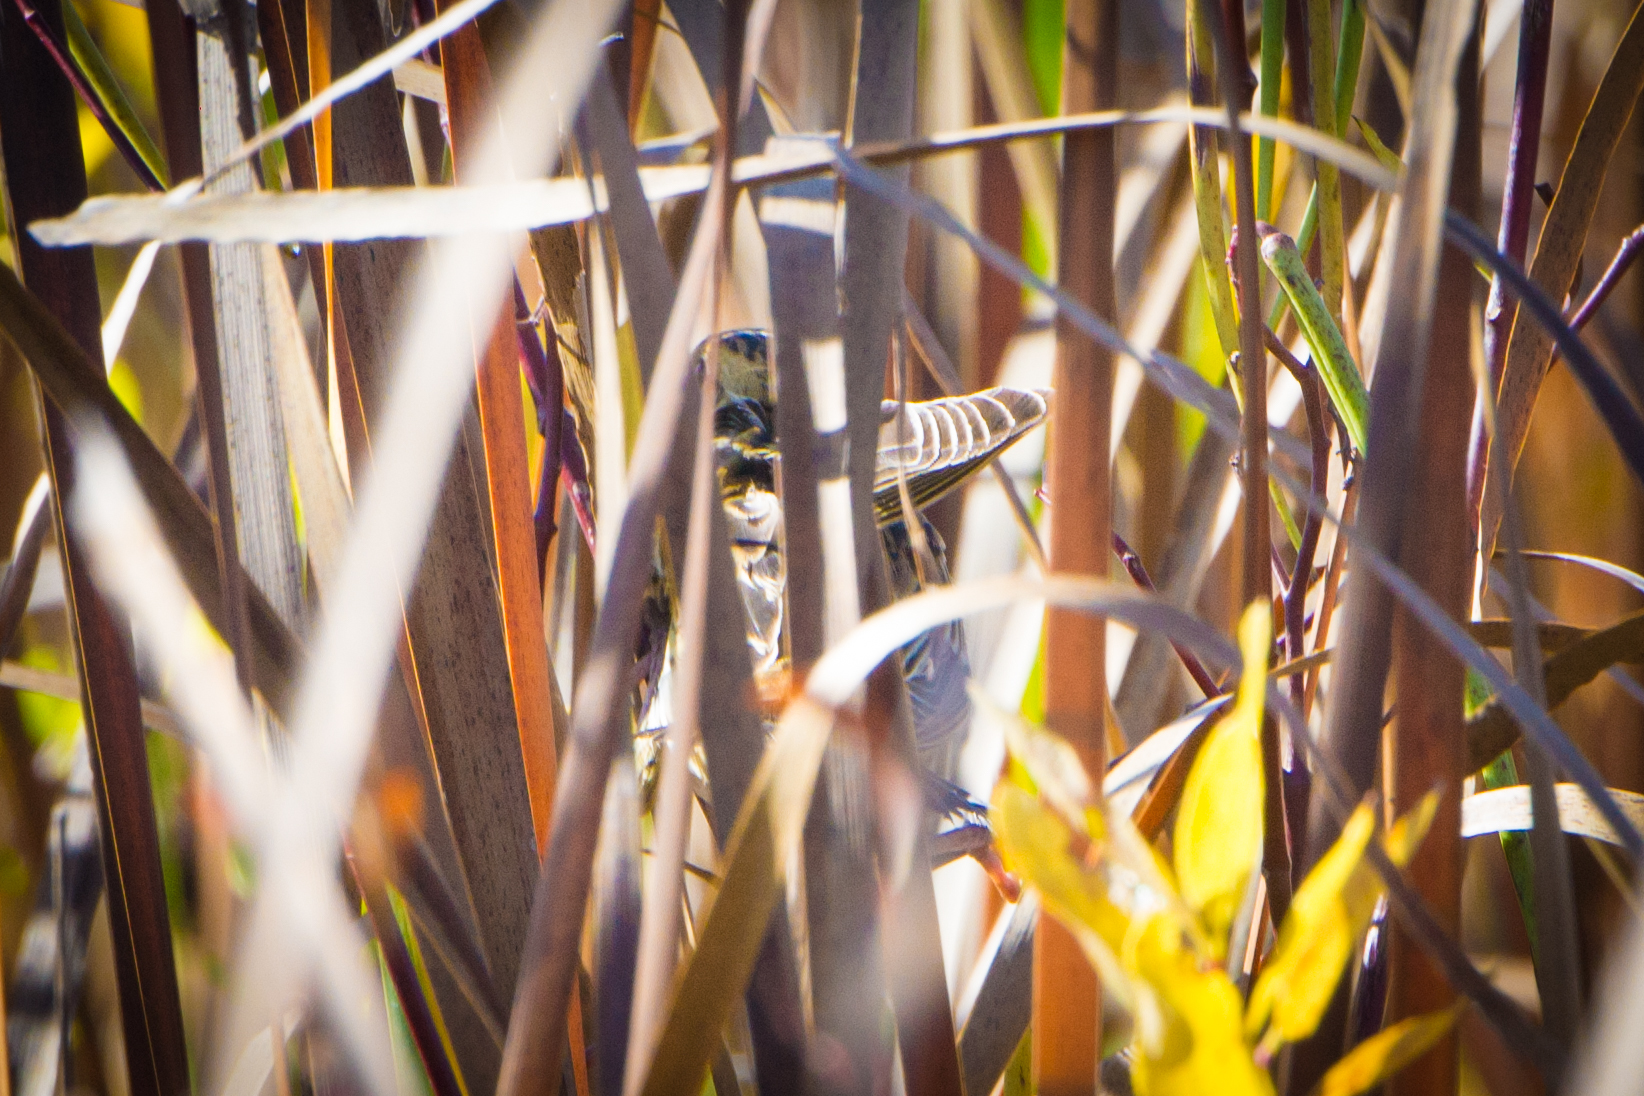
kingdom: Animalia
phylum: Chordata
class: Aves
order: Passeriformes
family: Passerellidae
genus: Centronyx
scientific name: Centronyx henslowii
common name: Henslow's sparrow
